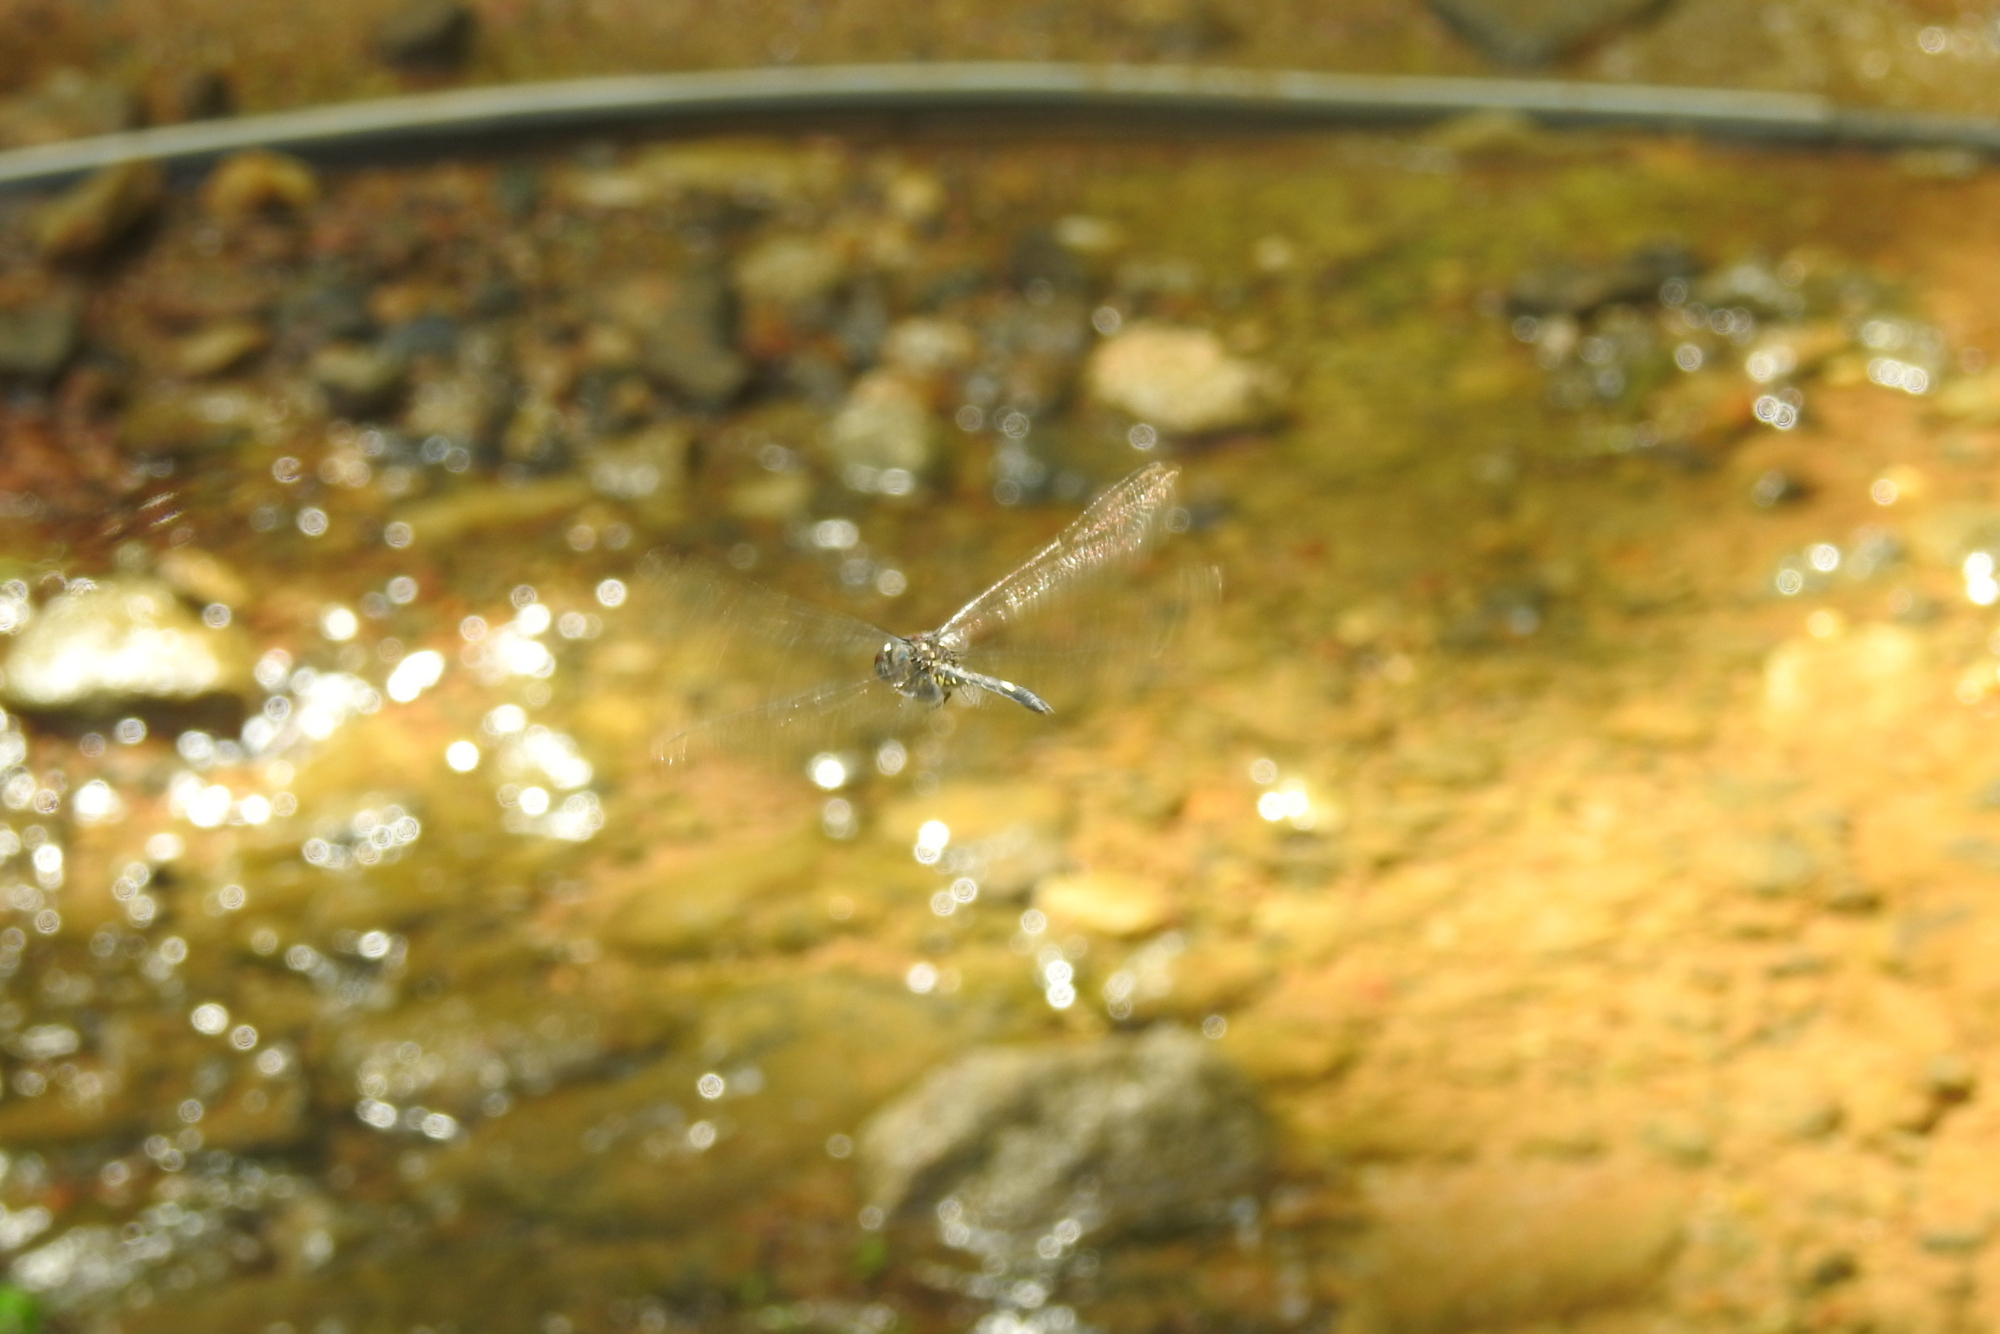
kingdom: Animalia
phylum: Arthropoda
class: Insecta
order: Odonata
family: Libellulidae
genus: Zygonyx
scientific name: Zygonyx iris
